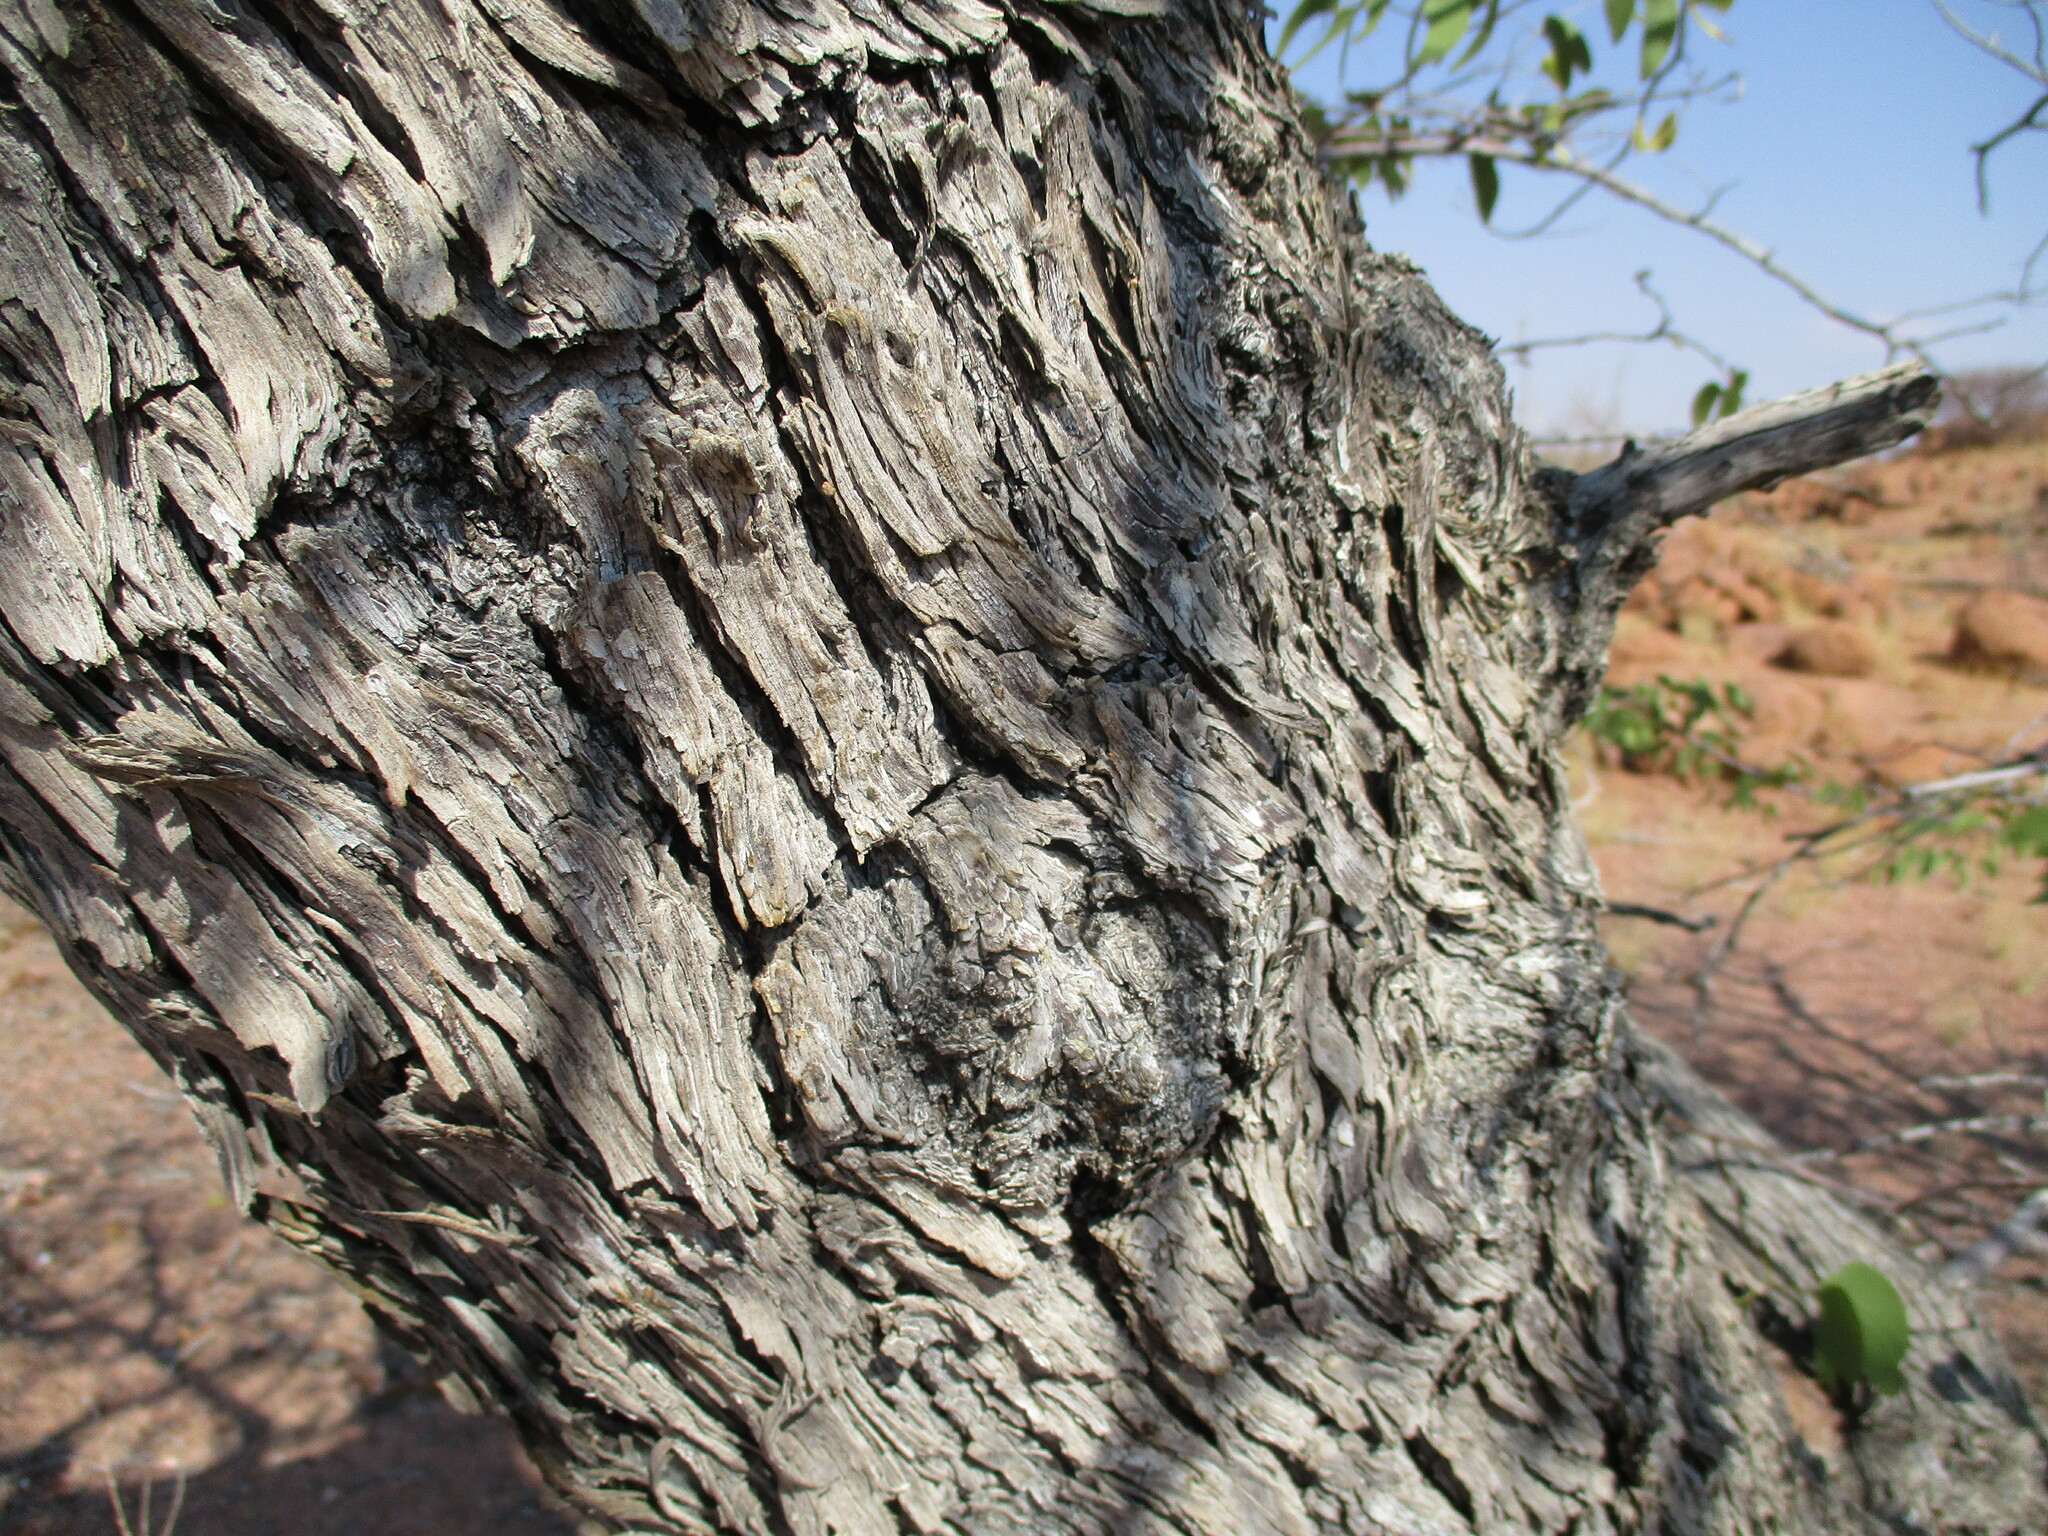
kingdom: Plantae
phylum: Tracheophyta
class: Magnoliopsida
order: Fabales
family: Fabaceae
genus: Colophospermum
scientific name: Colophospermum mopane
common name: Mopane
